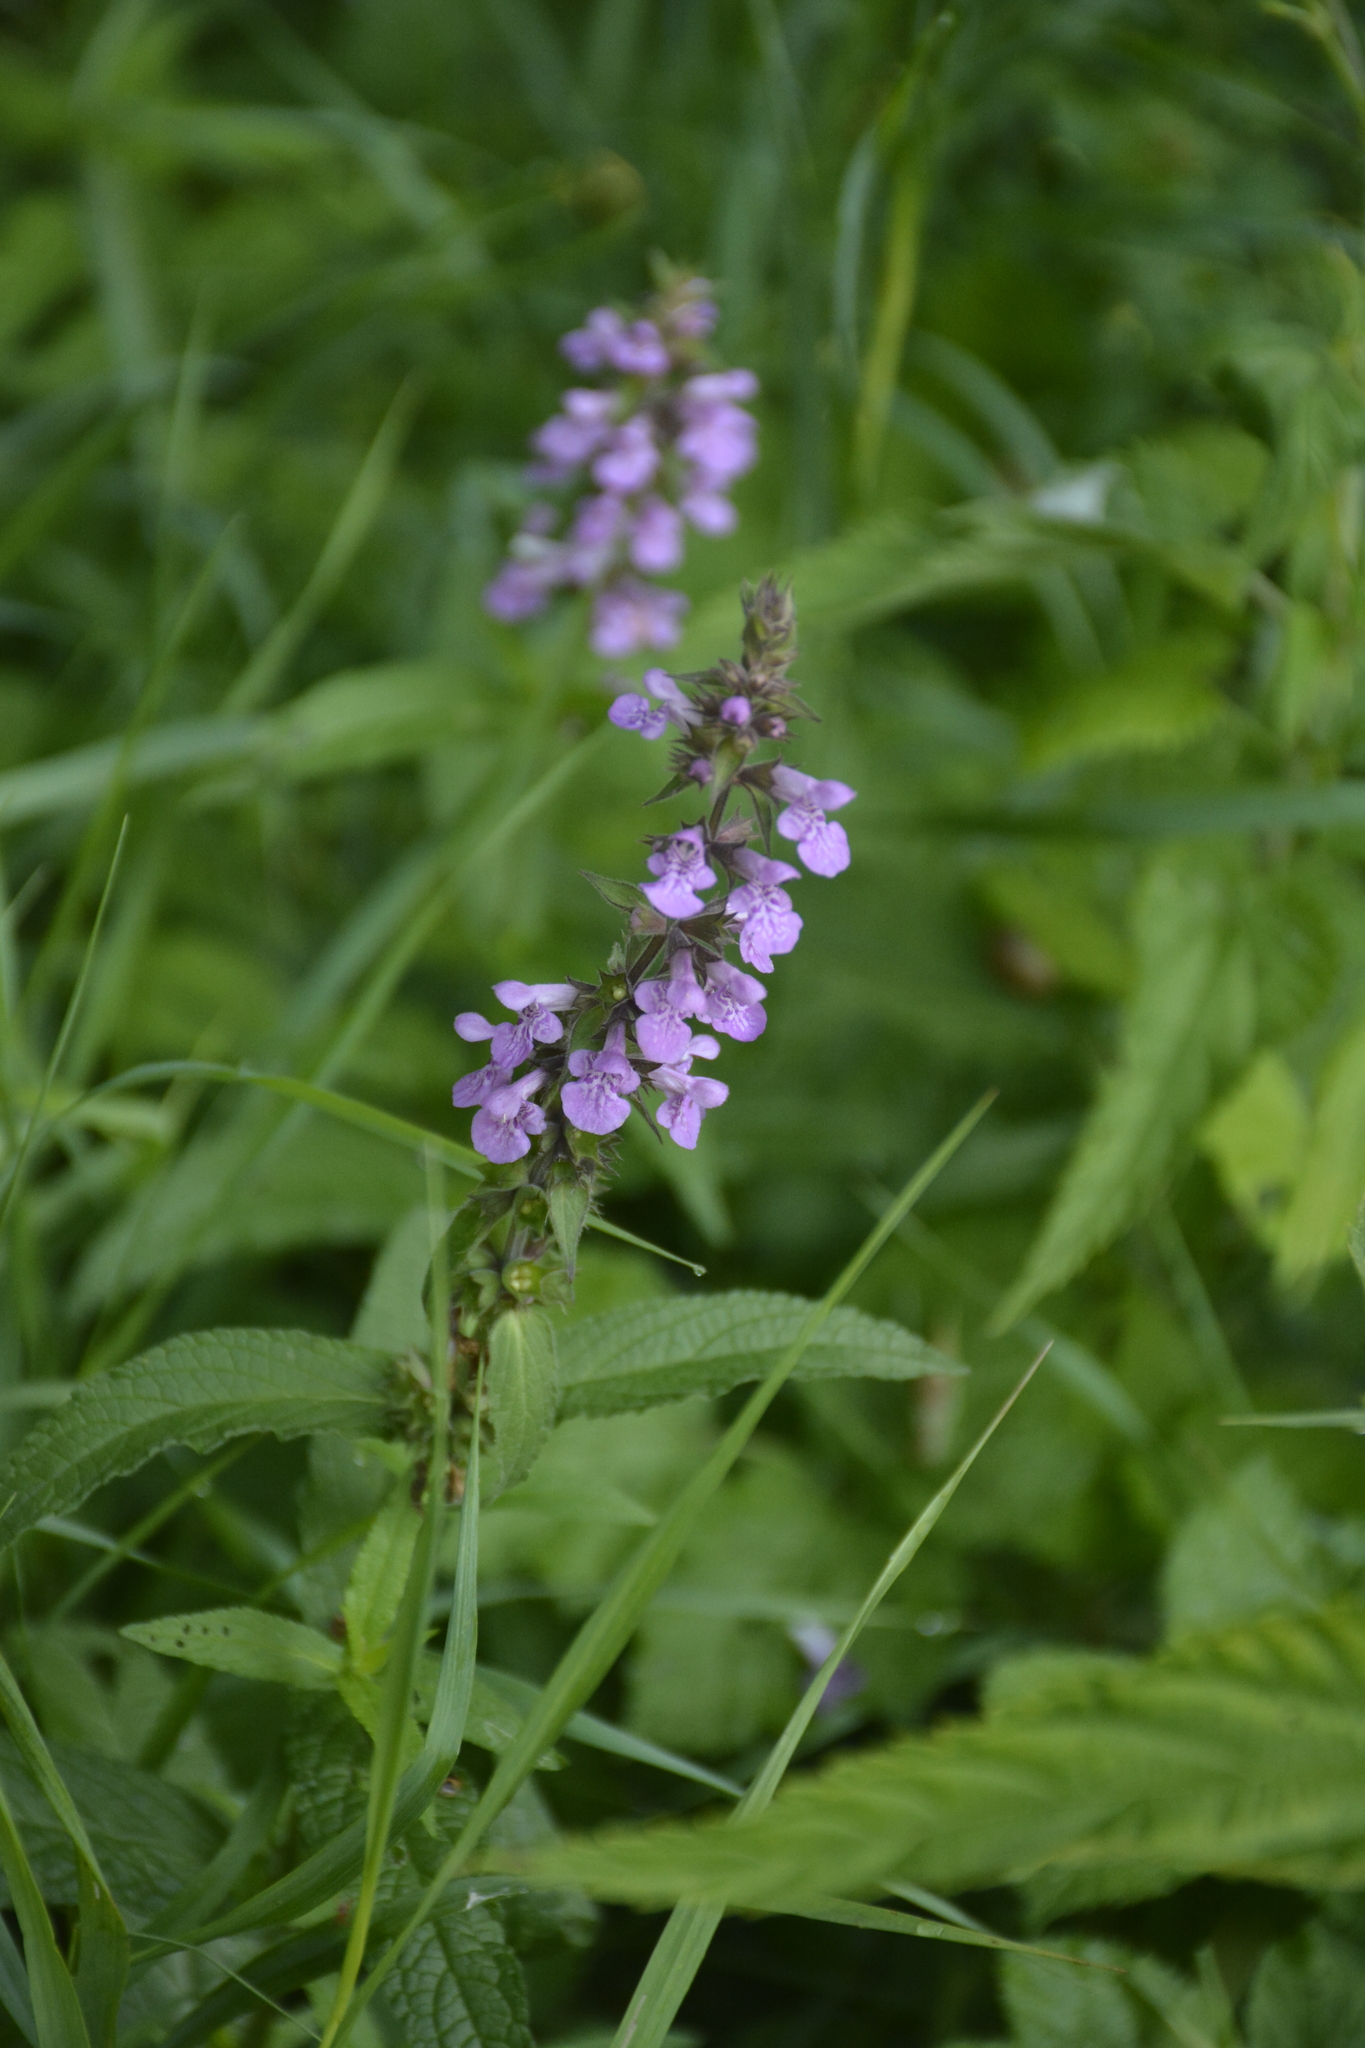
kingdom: Plantae
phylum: Tracheophyta
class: Magnoliopsida
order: Lamiales
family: Lamiaceae
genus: Stachys
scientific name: Stachys palustris
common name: Marsh woundwort
